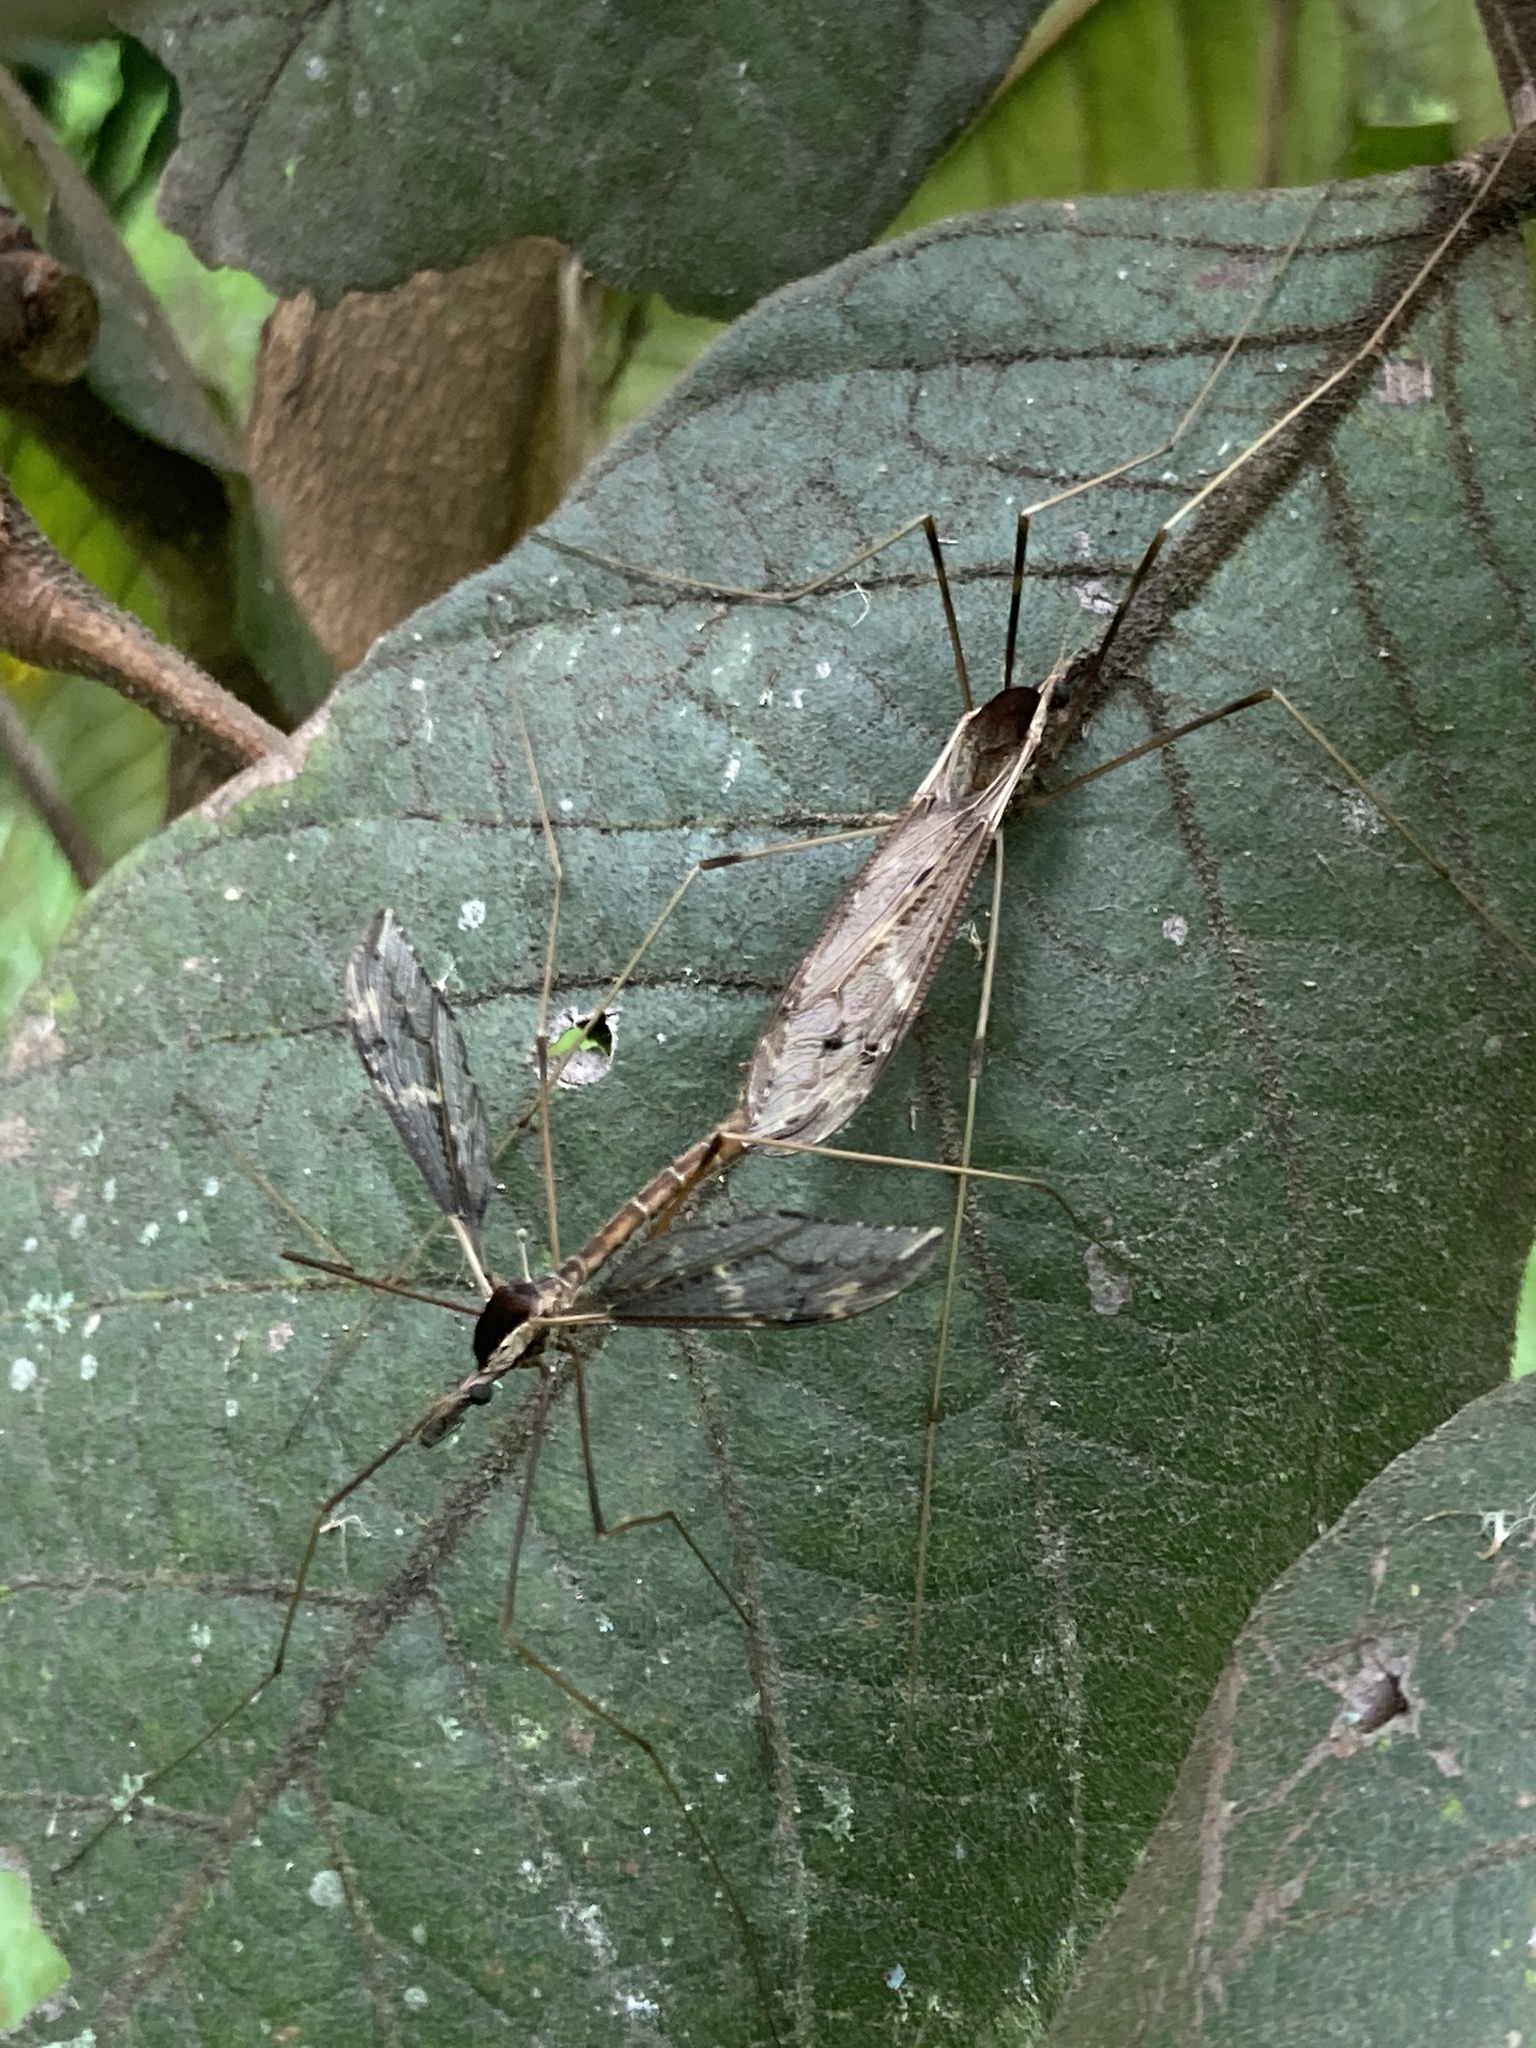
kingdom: Animalia
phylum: Arthropoda
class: Insecta
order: Diptera
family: Tipulidae
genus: Tipula
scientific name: Tipula obliquefasciata
